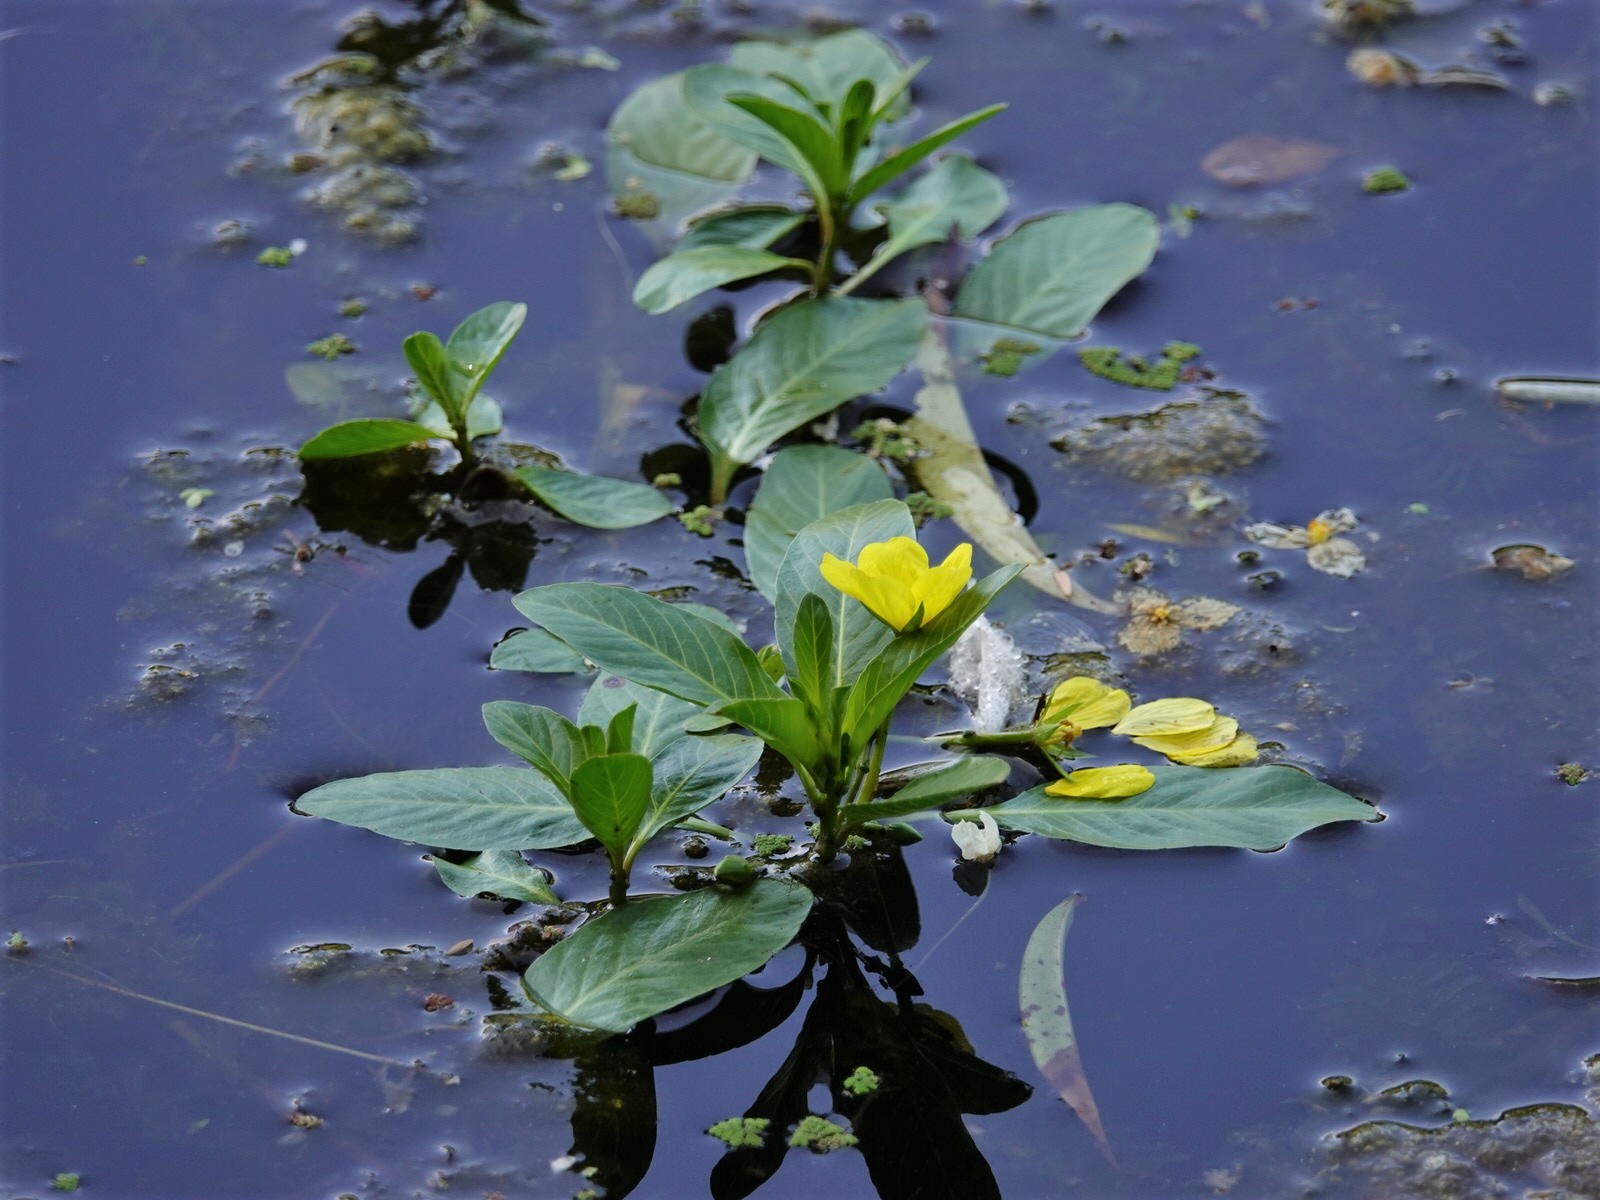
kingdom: Plantae
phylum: Tracheophyta
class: Magnoliopsida
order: Myrtales
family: Onagraceae
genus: Ludwigia
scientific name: Ludwigia peploides
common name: Floating primrose-willow
